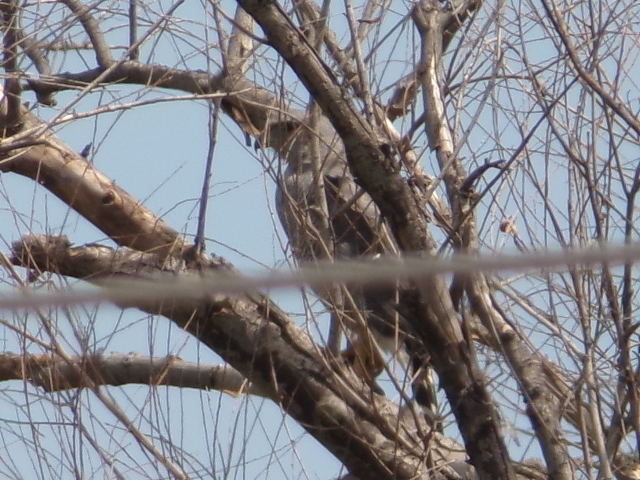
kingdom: Animalia
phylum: Chordata
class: Aves
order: Accipitriformes
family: Accipitridae
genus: Buteo
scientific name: Buteo nitidus
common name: Grey-lined hawk
